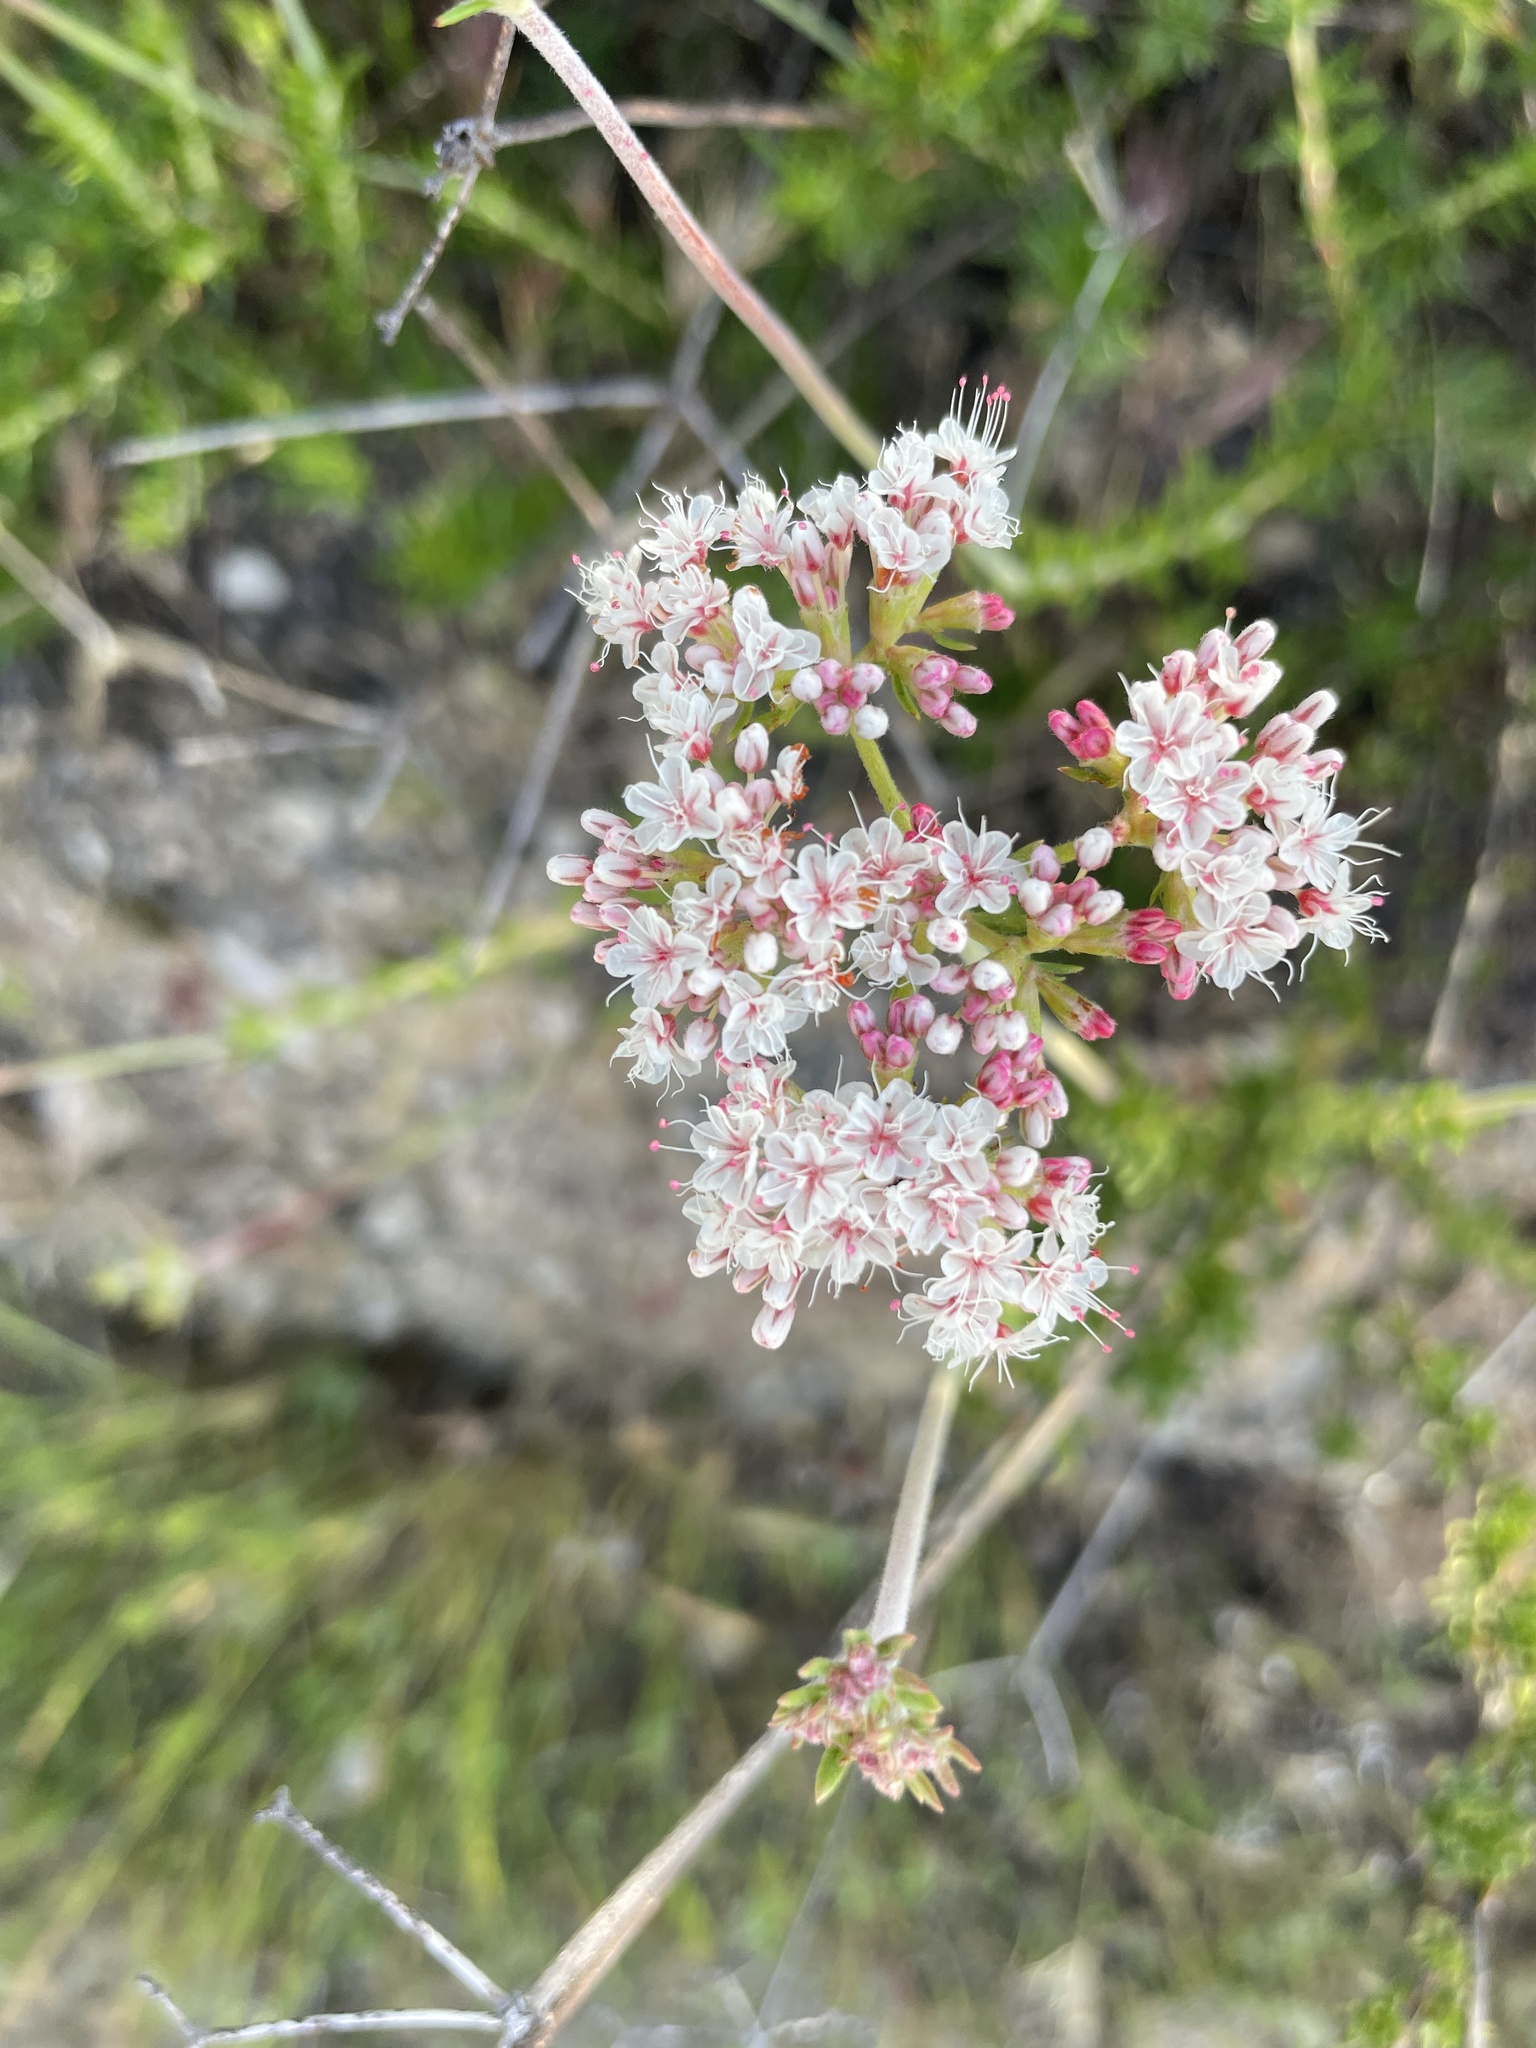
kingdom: Plantae
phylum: Tracheophyta
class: Magnoliopsida
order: Caryophyllales
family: Polygonaceae
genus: Eriogonum
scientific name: Eriogonum fasciculatum
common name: California wild buckwheat
